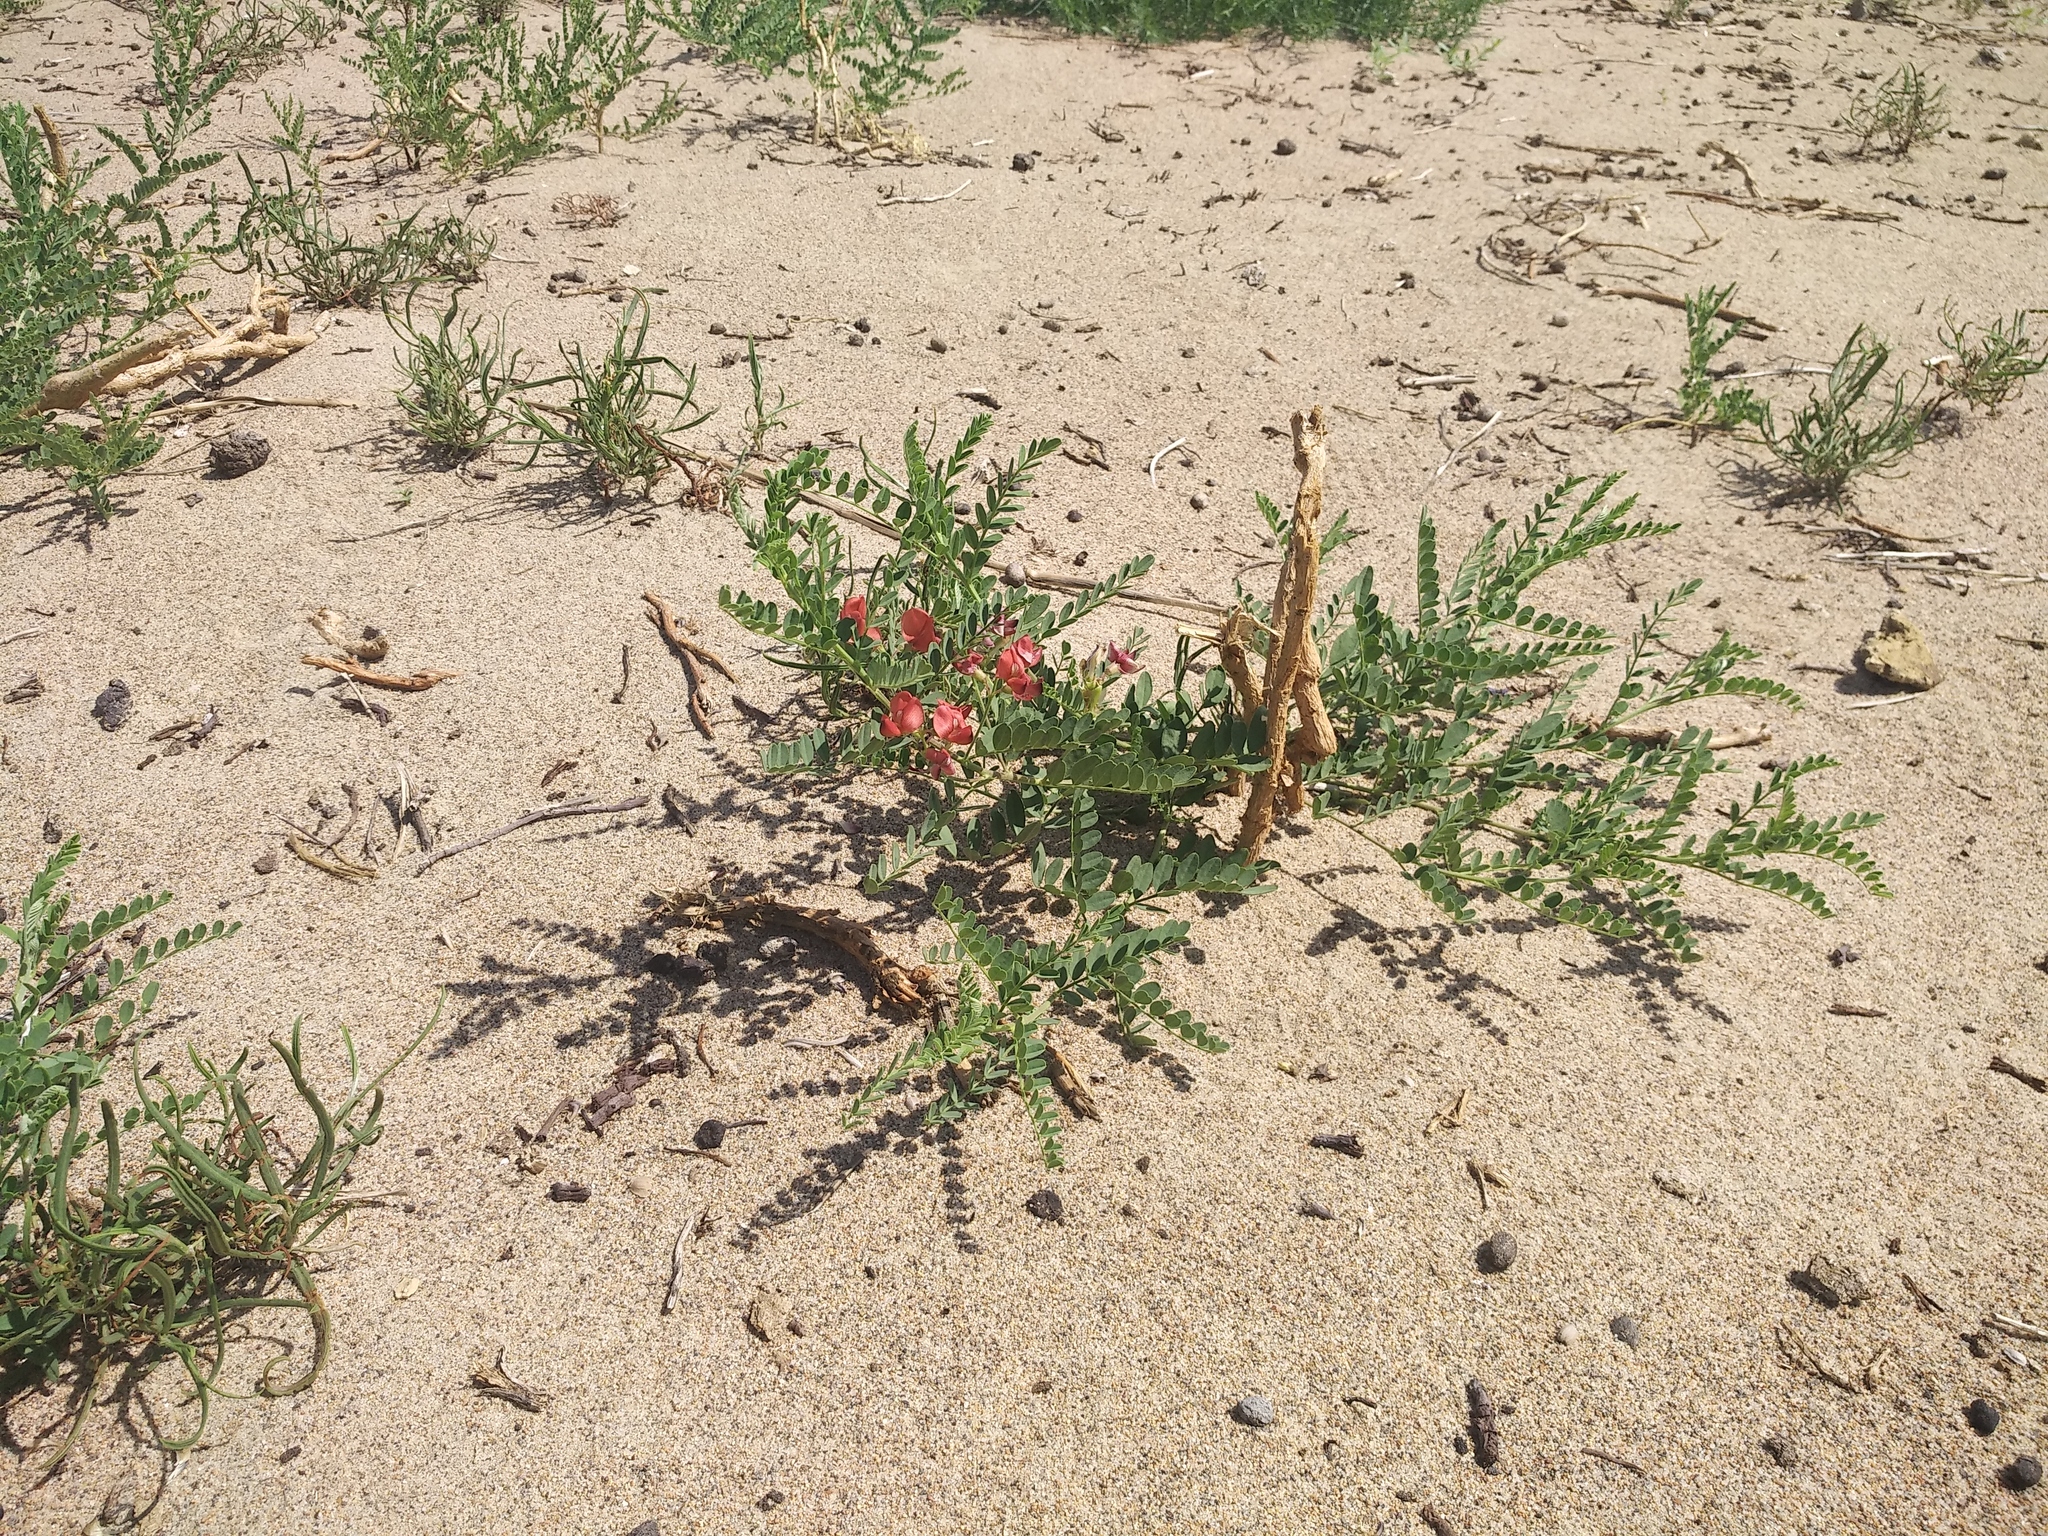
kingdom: Plantae
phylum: Tracheophyta
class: Magnoliopsida
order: Fabales
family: Fabaceae
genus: Sphaerophysa
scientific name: Sphaerophysa salsula
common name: Alkali swainsonpea
